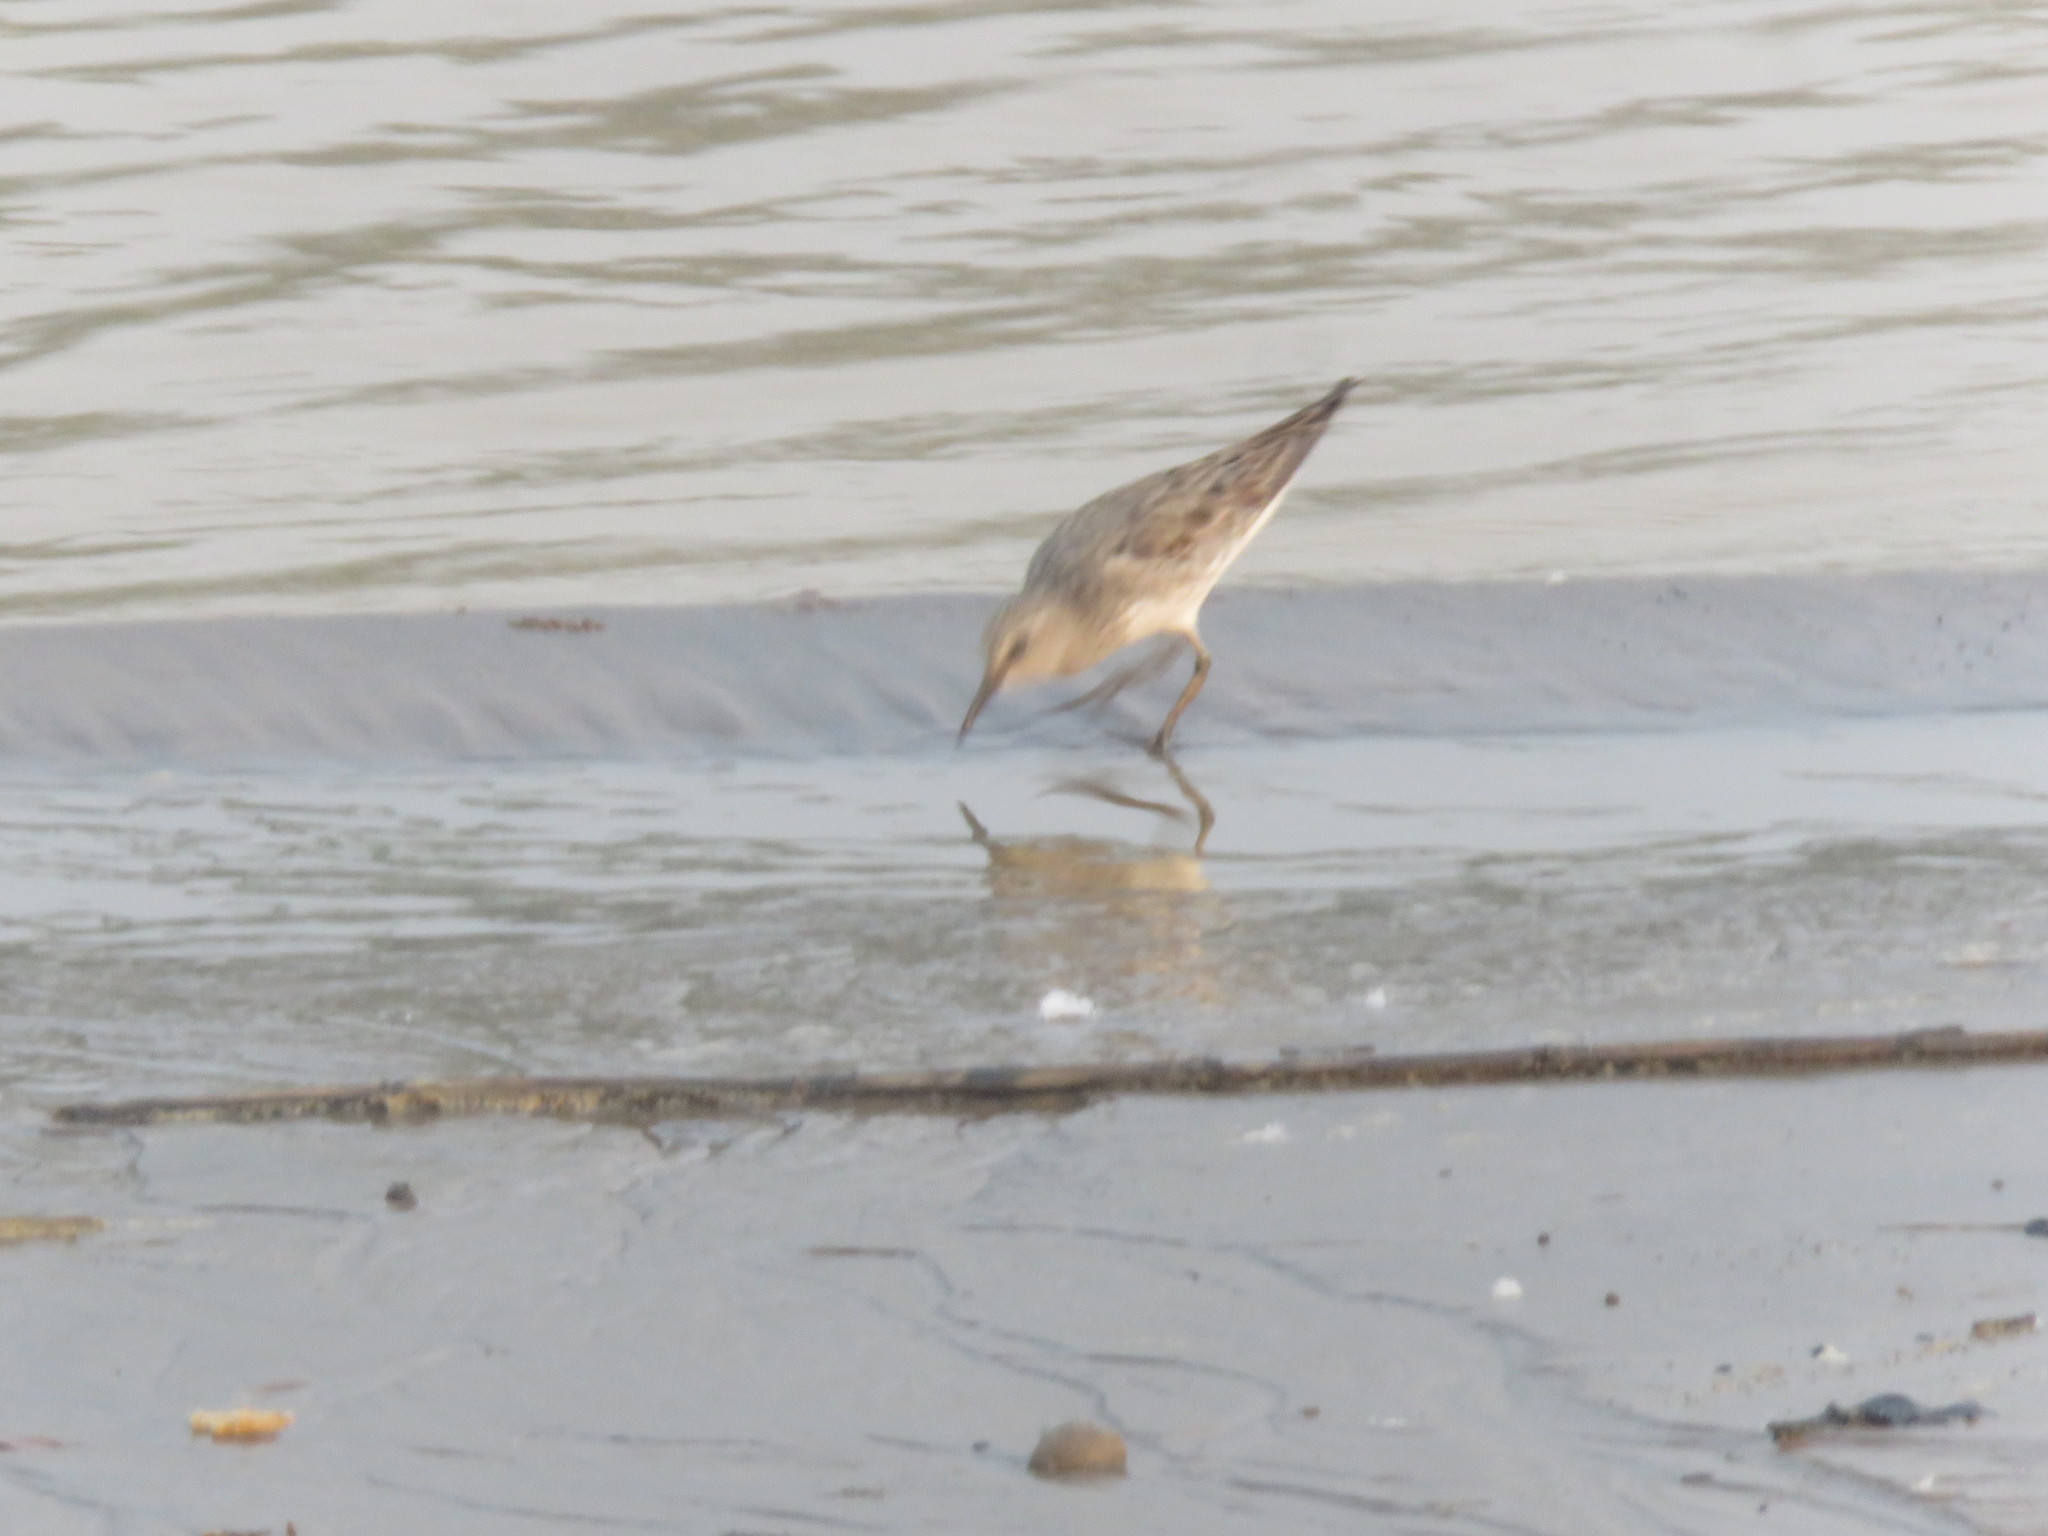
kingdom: Animalia
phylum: Chordata
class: Aves
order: Charadriiformes
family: Scolopacidae
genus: Calidris
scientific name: Calidris bairdii
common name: Baird's sandpiper
